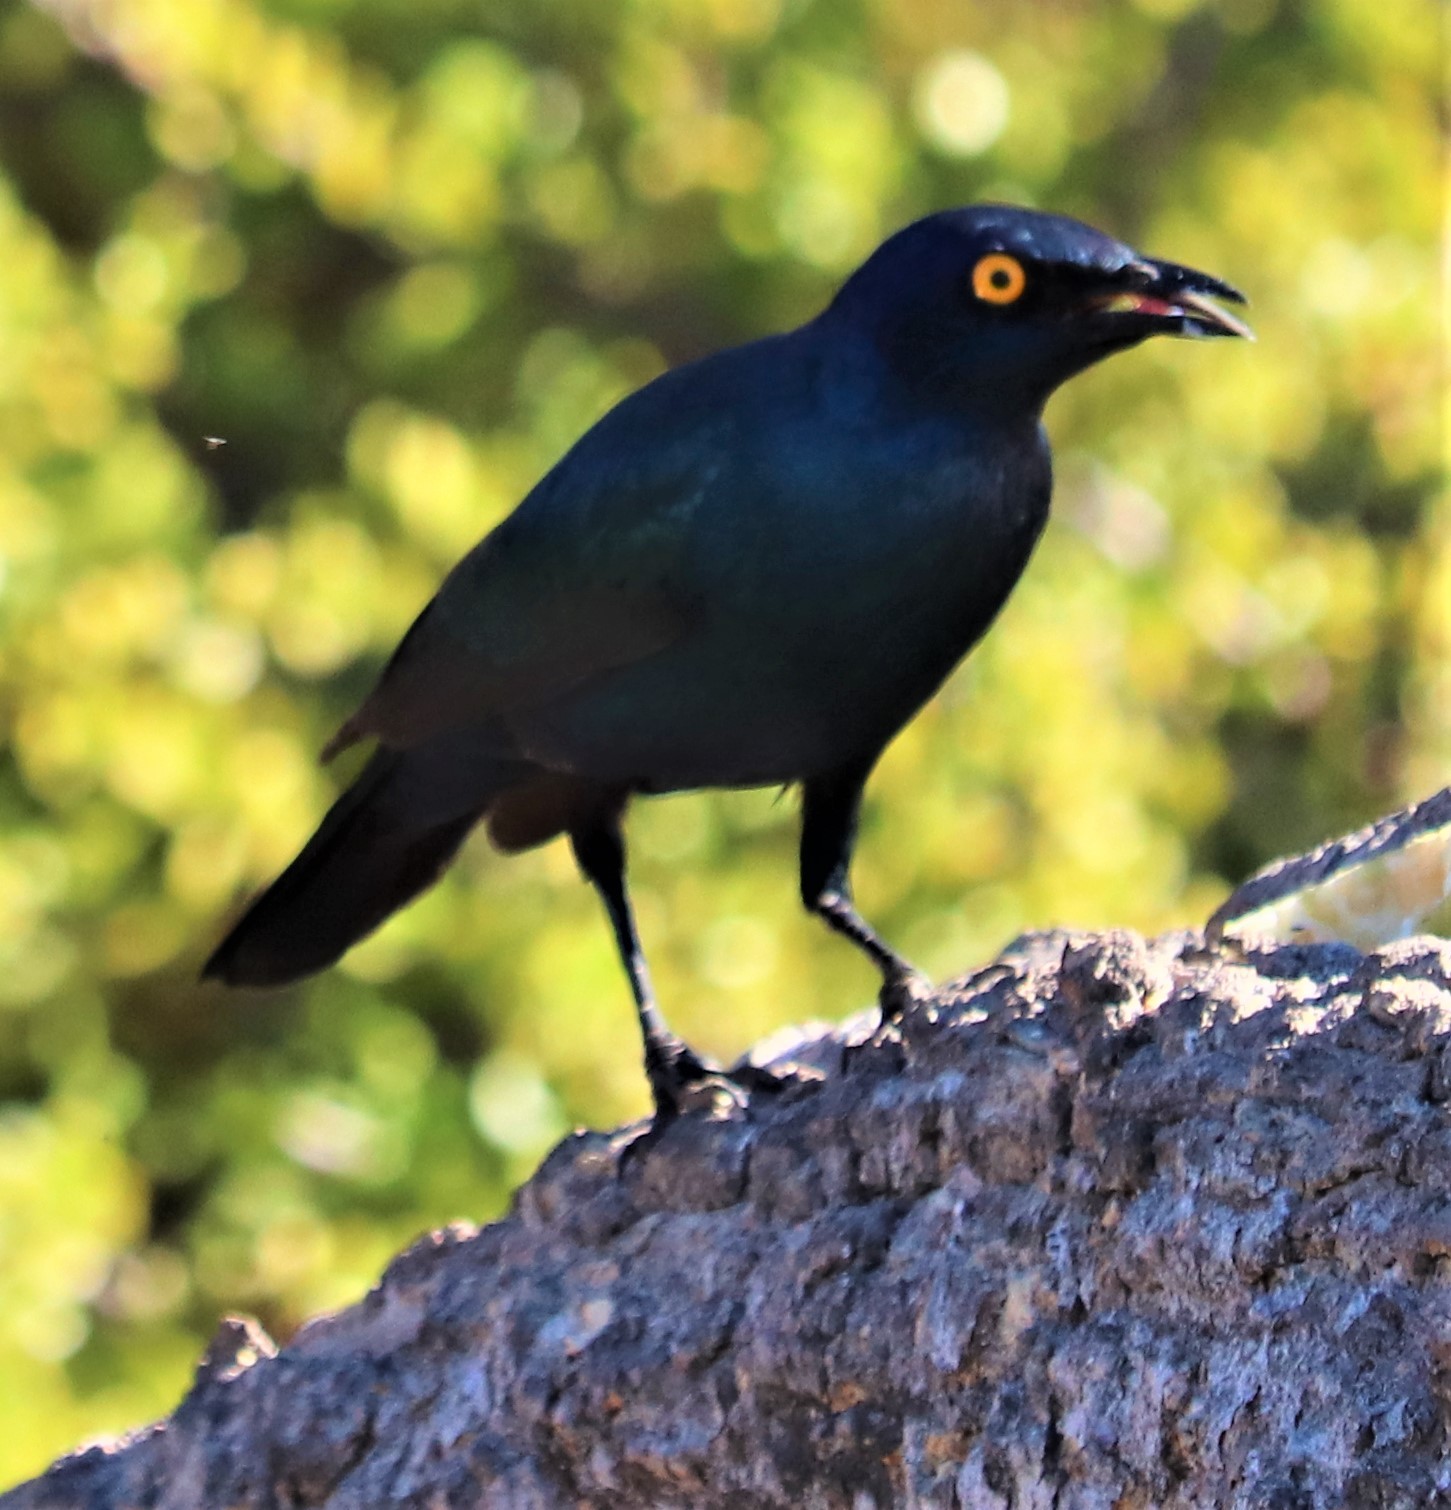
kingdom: Animalia
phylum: Chordata
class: Aves
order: Passeriformes
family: Sturnidae
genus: Lamprotornis
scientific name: Lamprotornis nitens
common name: Cape starling
